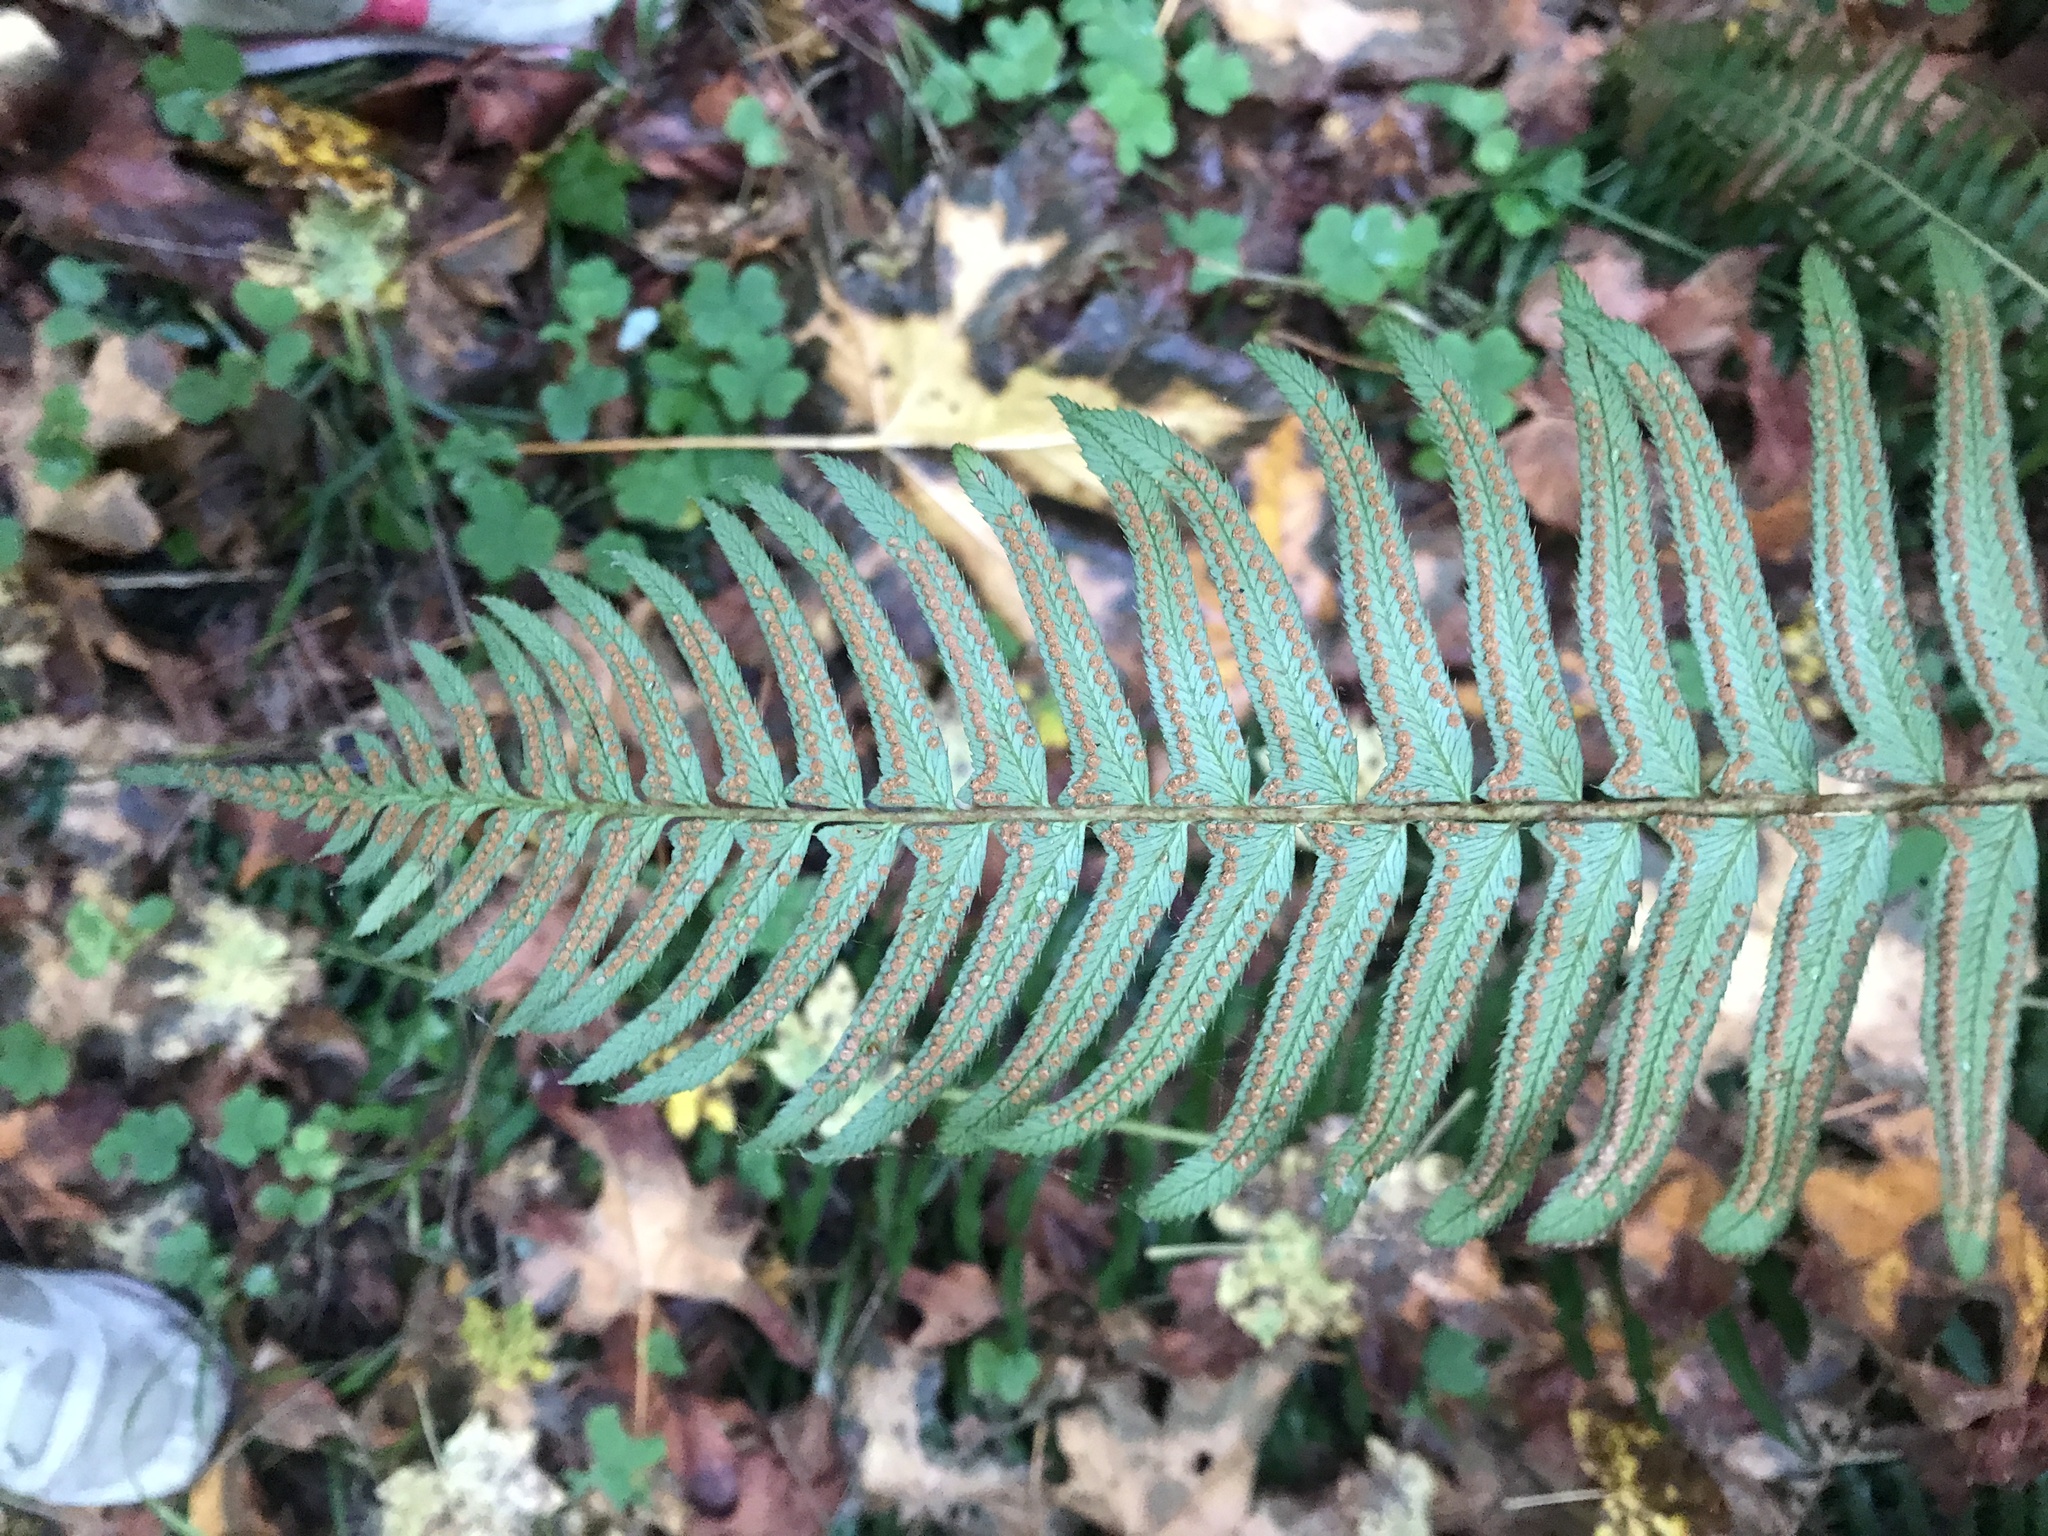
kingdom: Plantae
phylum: Tracheophyta
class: Polypodiopsida
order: Polypodiales
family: Dryopteridaceae
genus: Polystichum
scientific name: Polystichum munitum
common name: Western sword-fern
